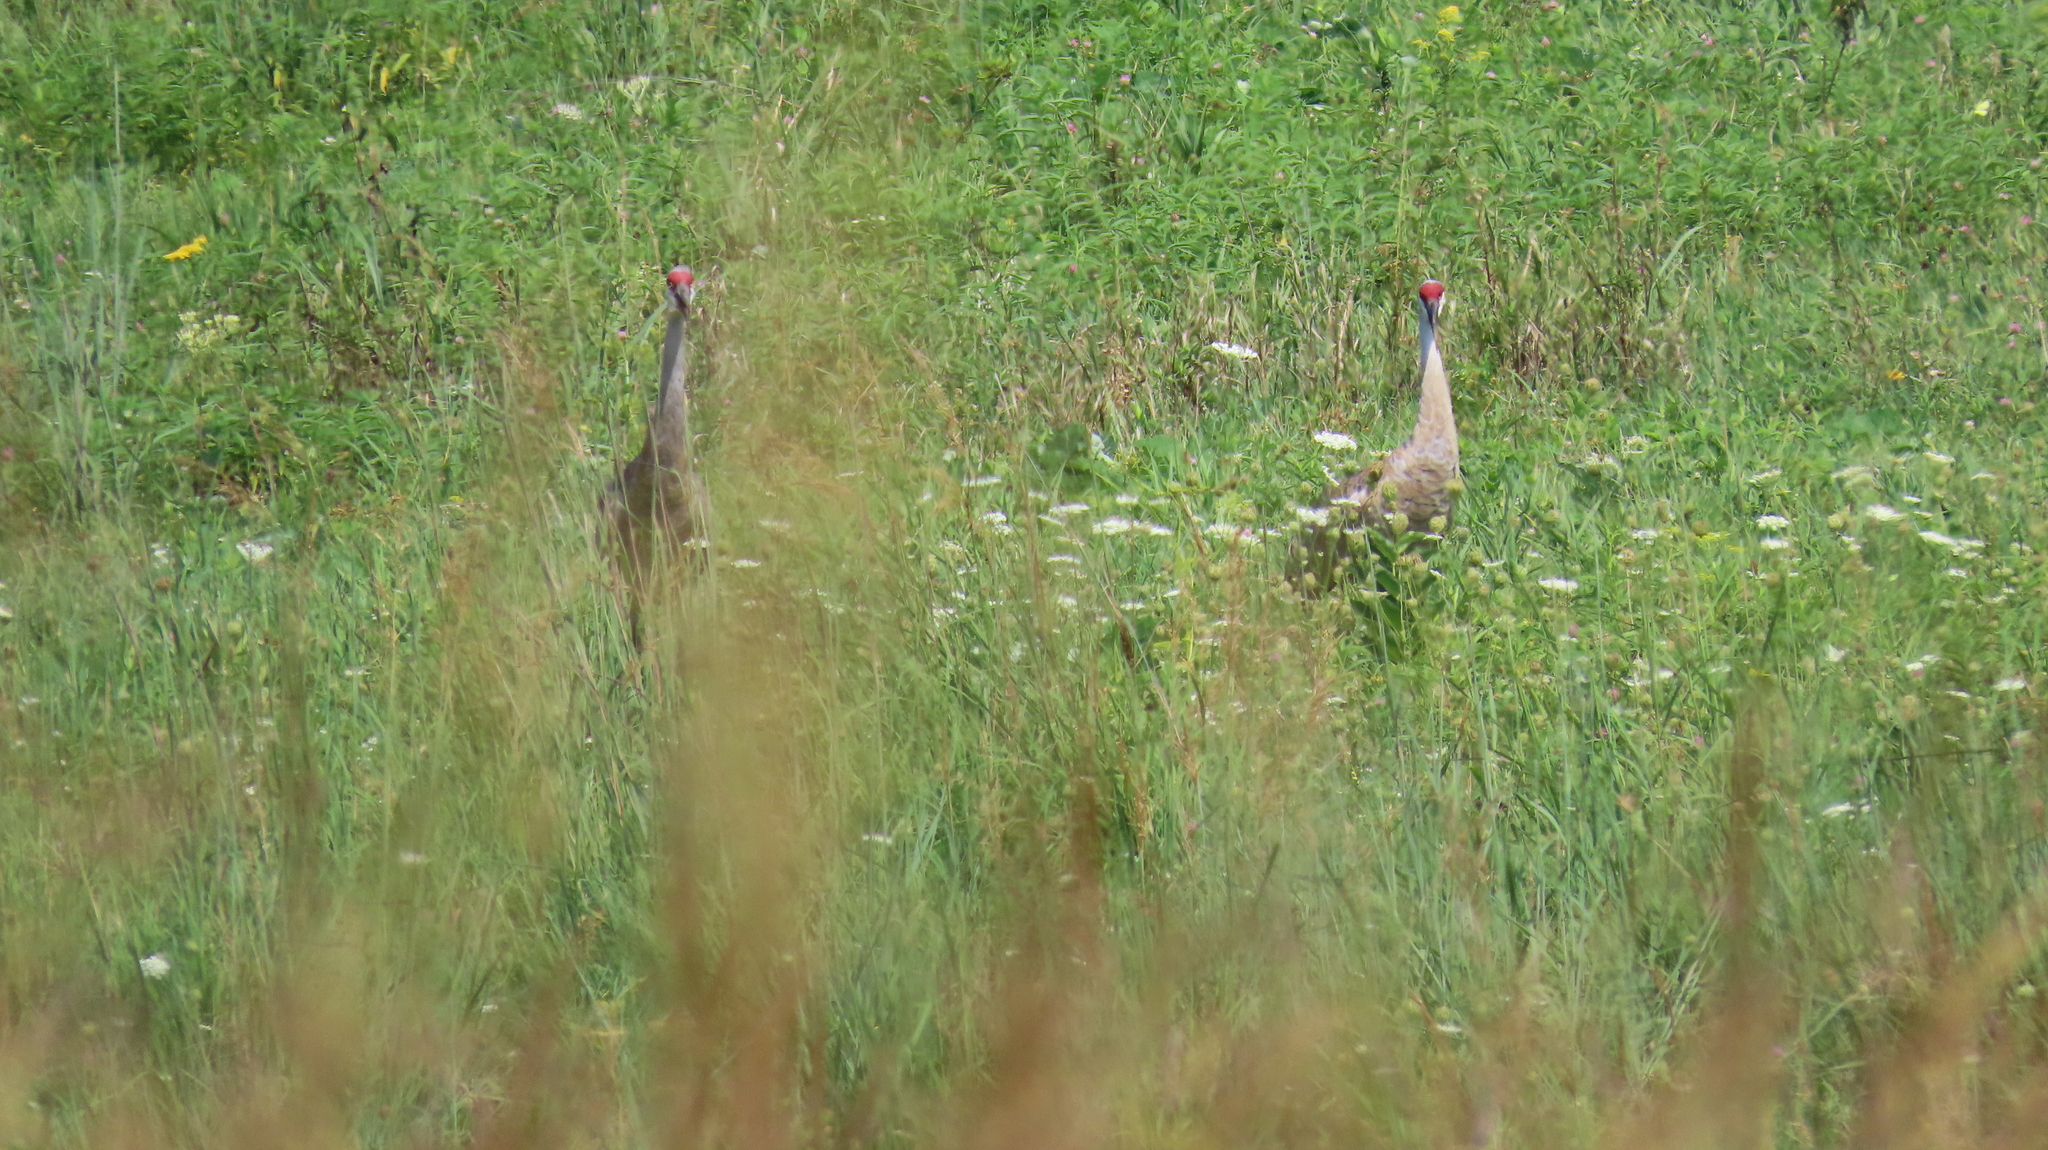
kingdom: Animalia
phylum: Chordata
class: Aves
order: Gruiformes
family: Gruidae
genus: Grus
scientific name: Grus canadensis
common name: Sandhill crane
